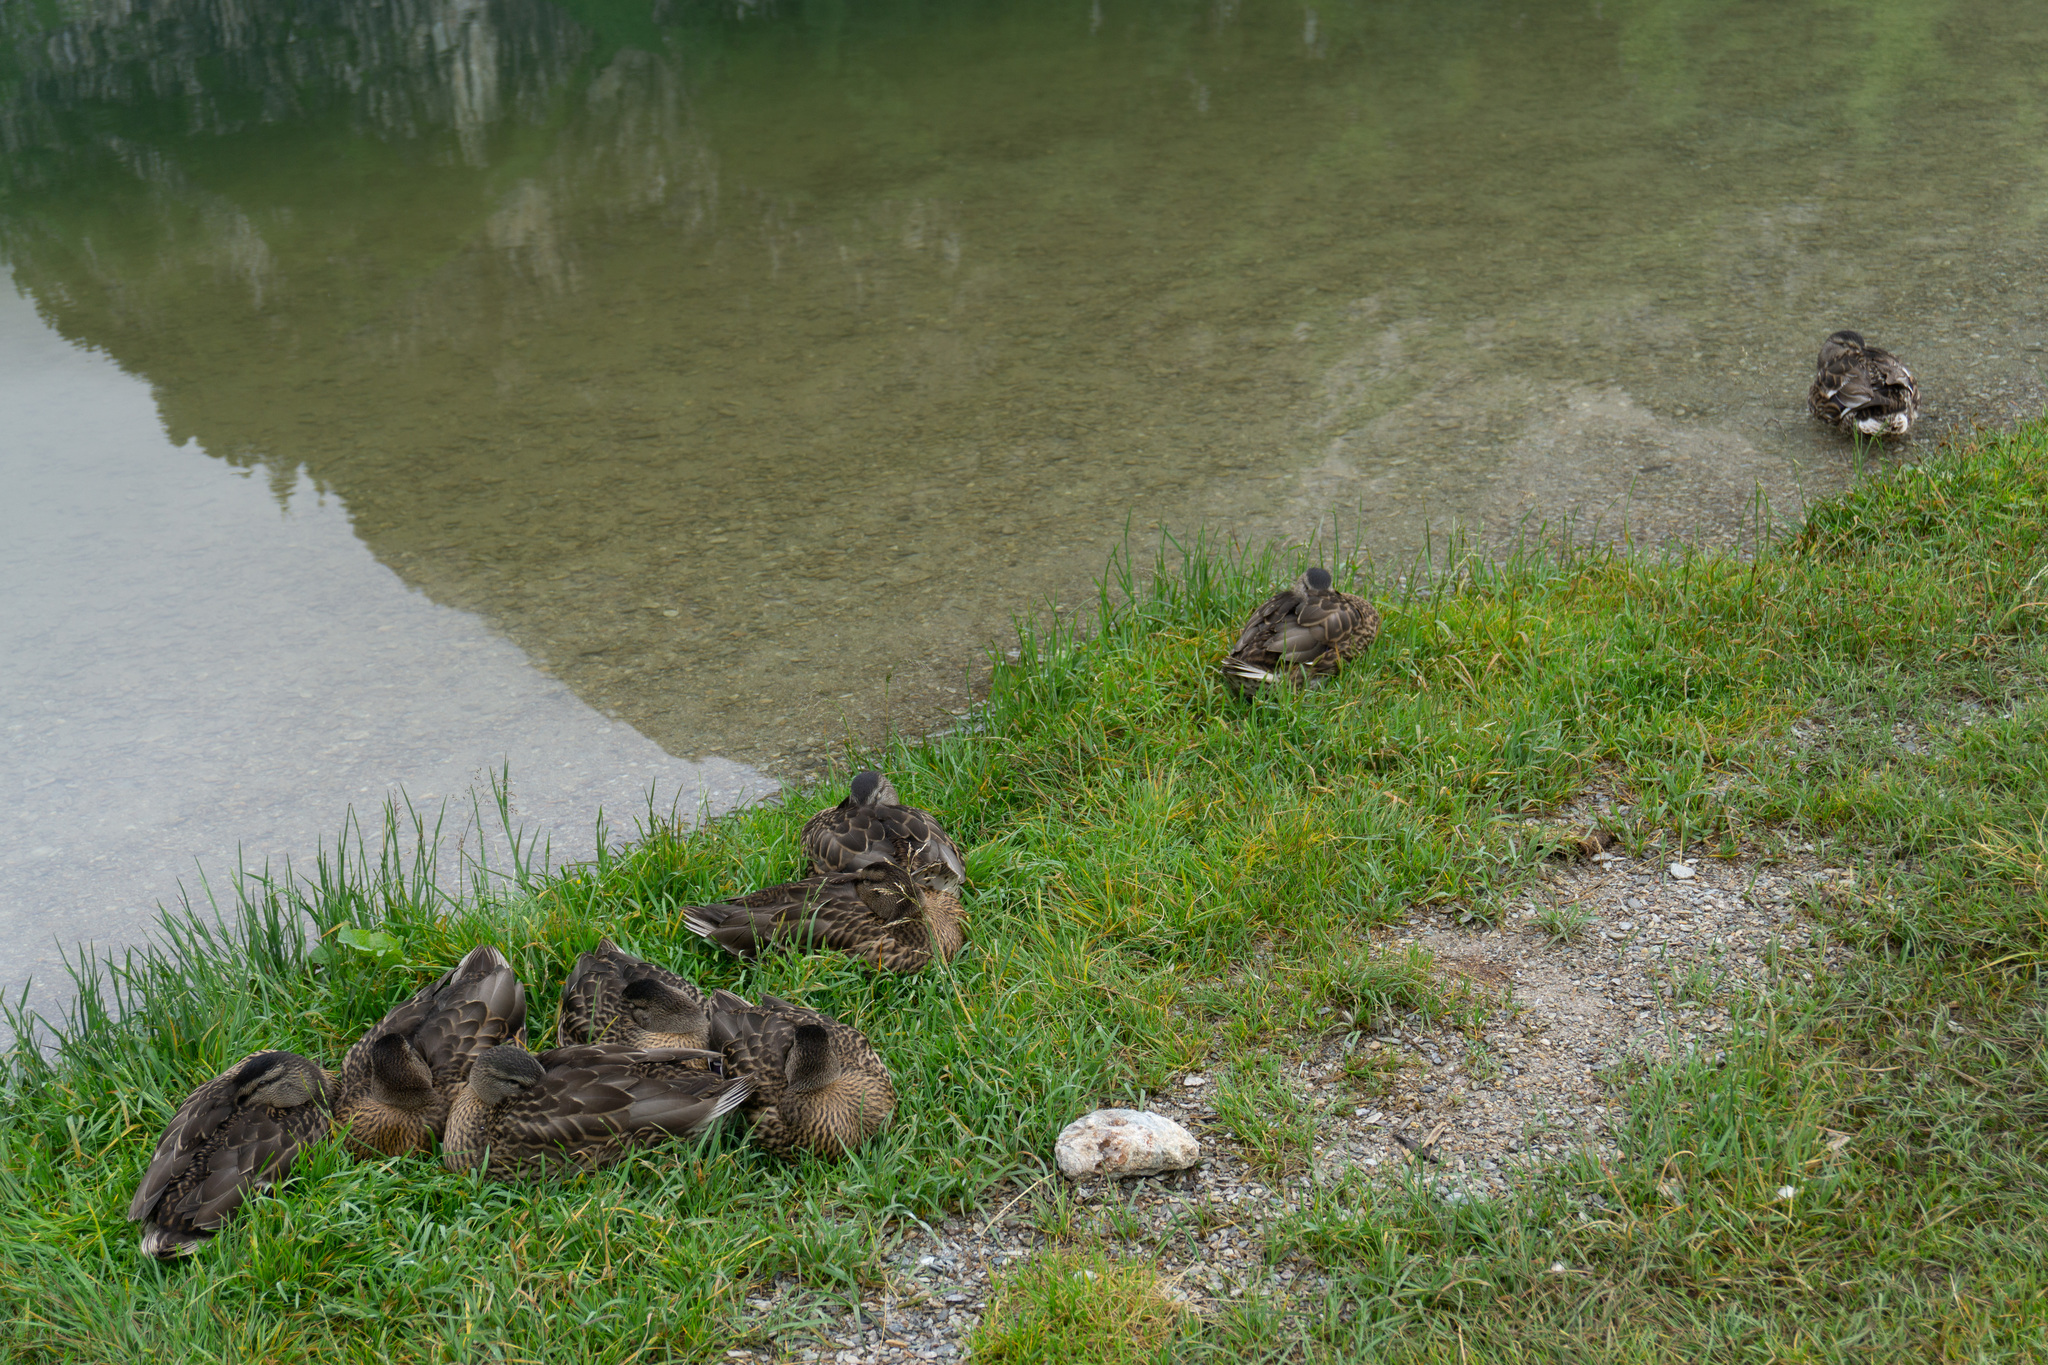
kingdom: Animalia
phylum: Chordata
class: Aves
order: Anseriformes
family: Anatidae
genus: Anas
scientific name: Anas platyrhynchos
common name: Mallard
